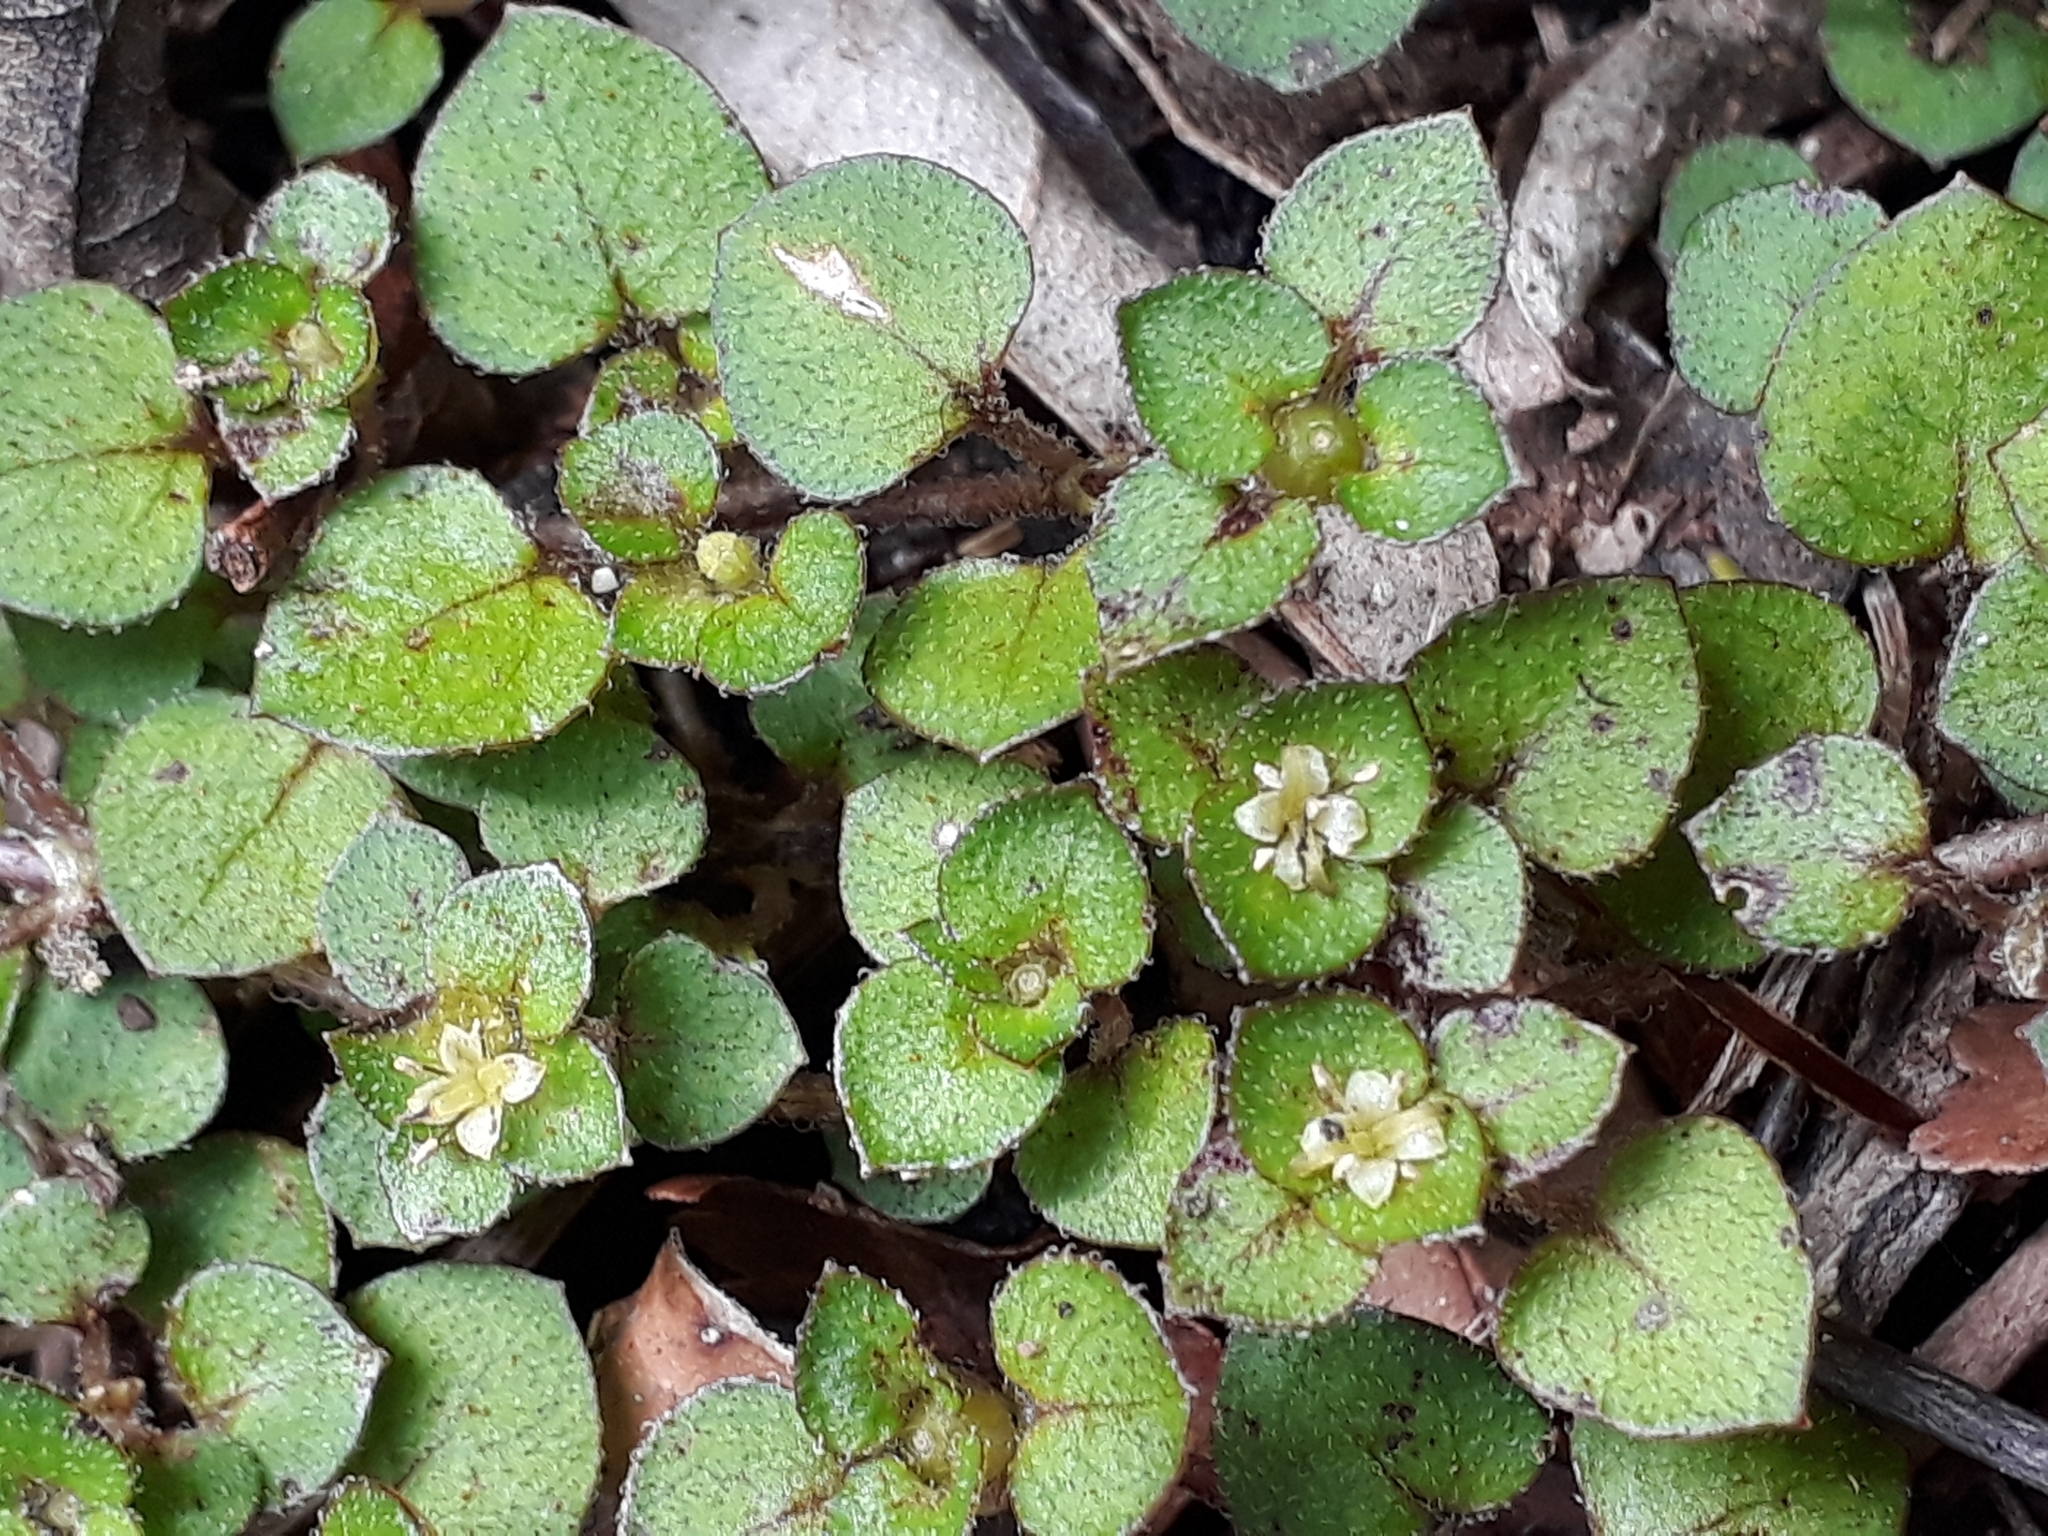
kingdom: Plantae
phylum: Tracheophyta
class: Magnoliopsida
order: Gentianales
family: Rubiaceae
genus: Nertera
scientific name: Nertera dichondrifolia
